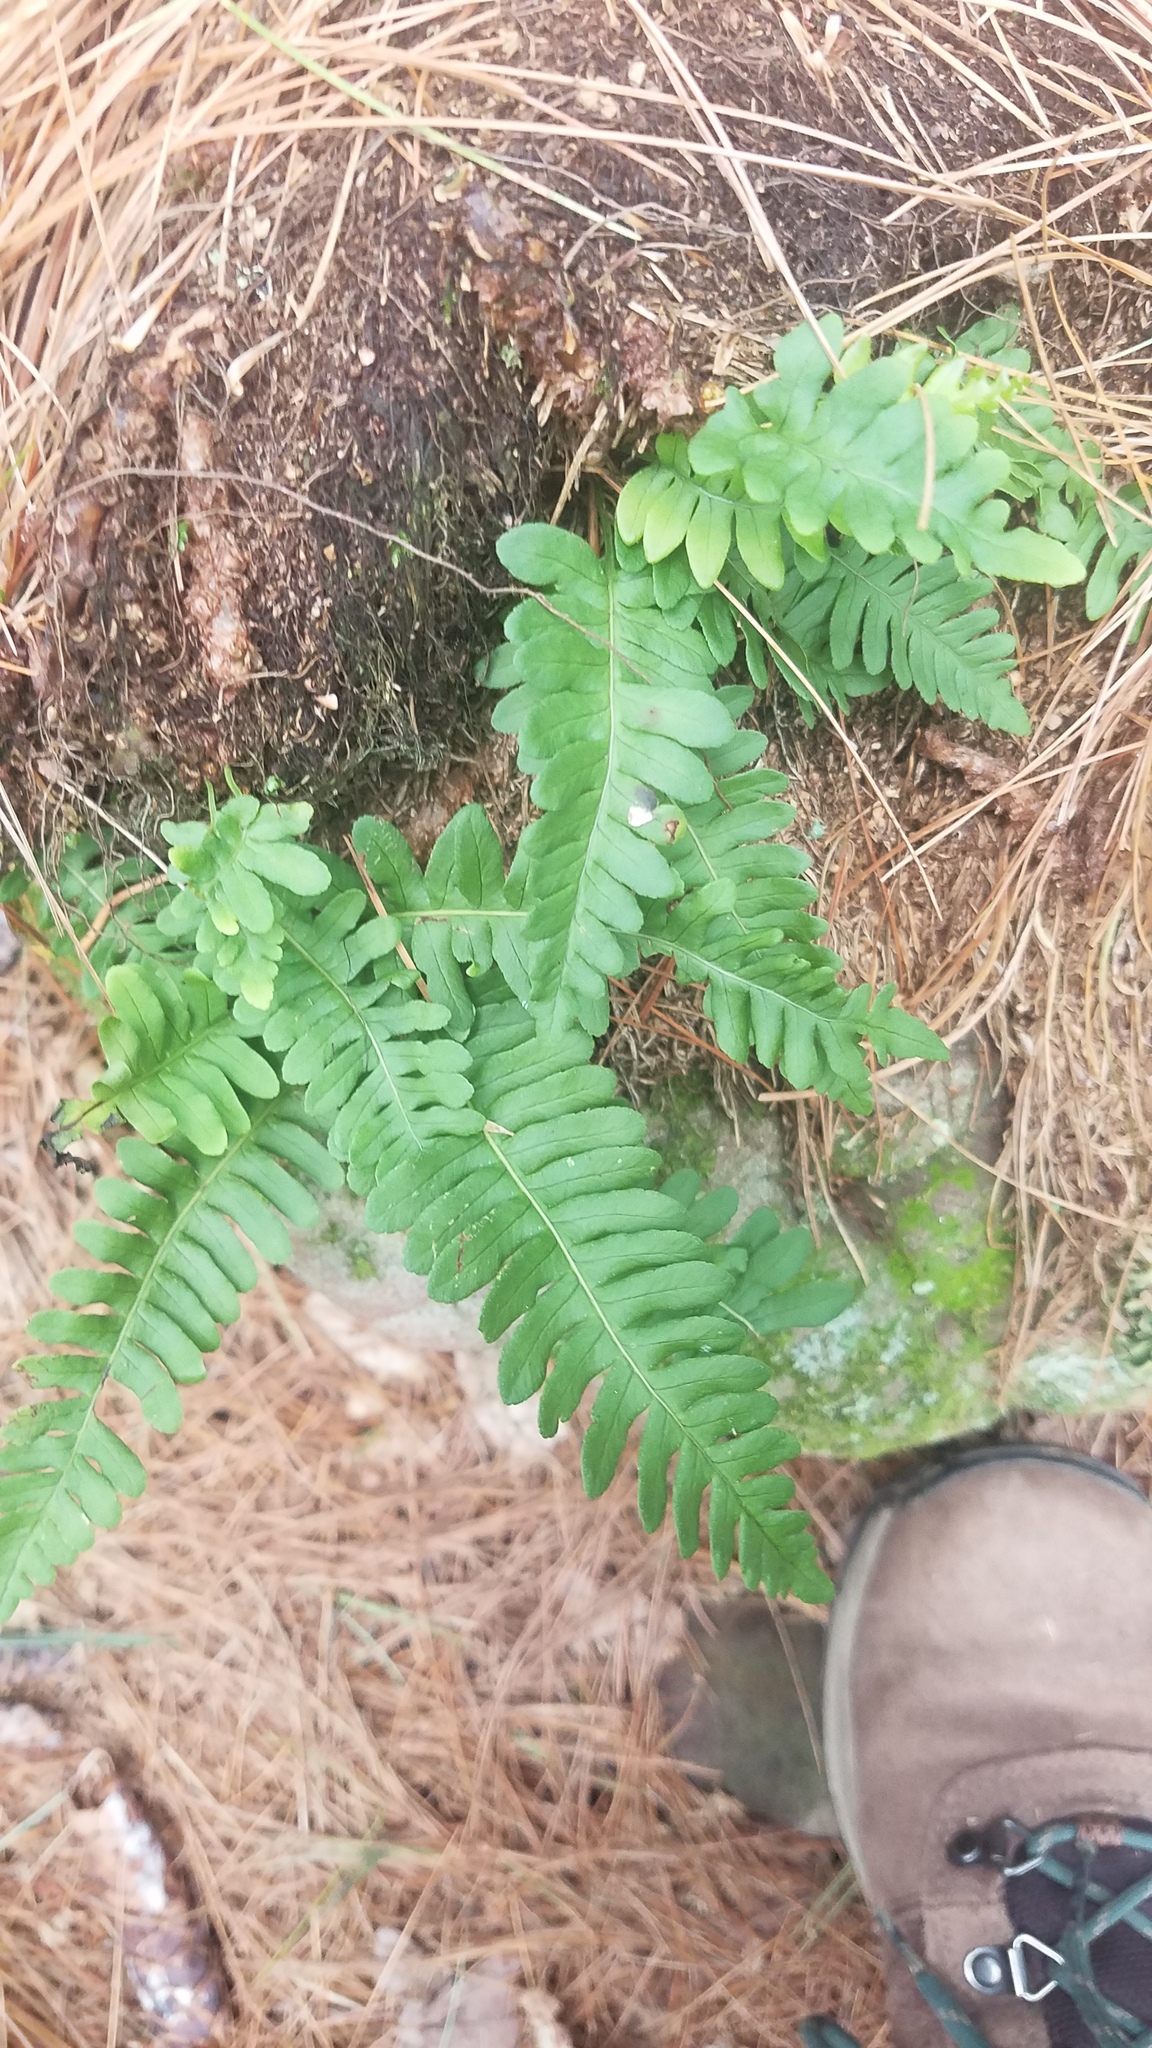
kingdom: Plantae
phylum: Tracheophyta
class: Polypodiopsida
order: Polypodiales
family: Polypodiaceae
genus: Polypodium
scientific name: Polypodium virginianum
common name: American wall fern
